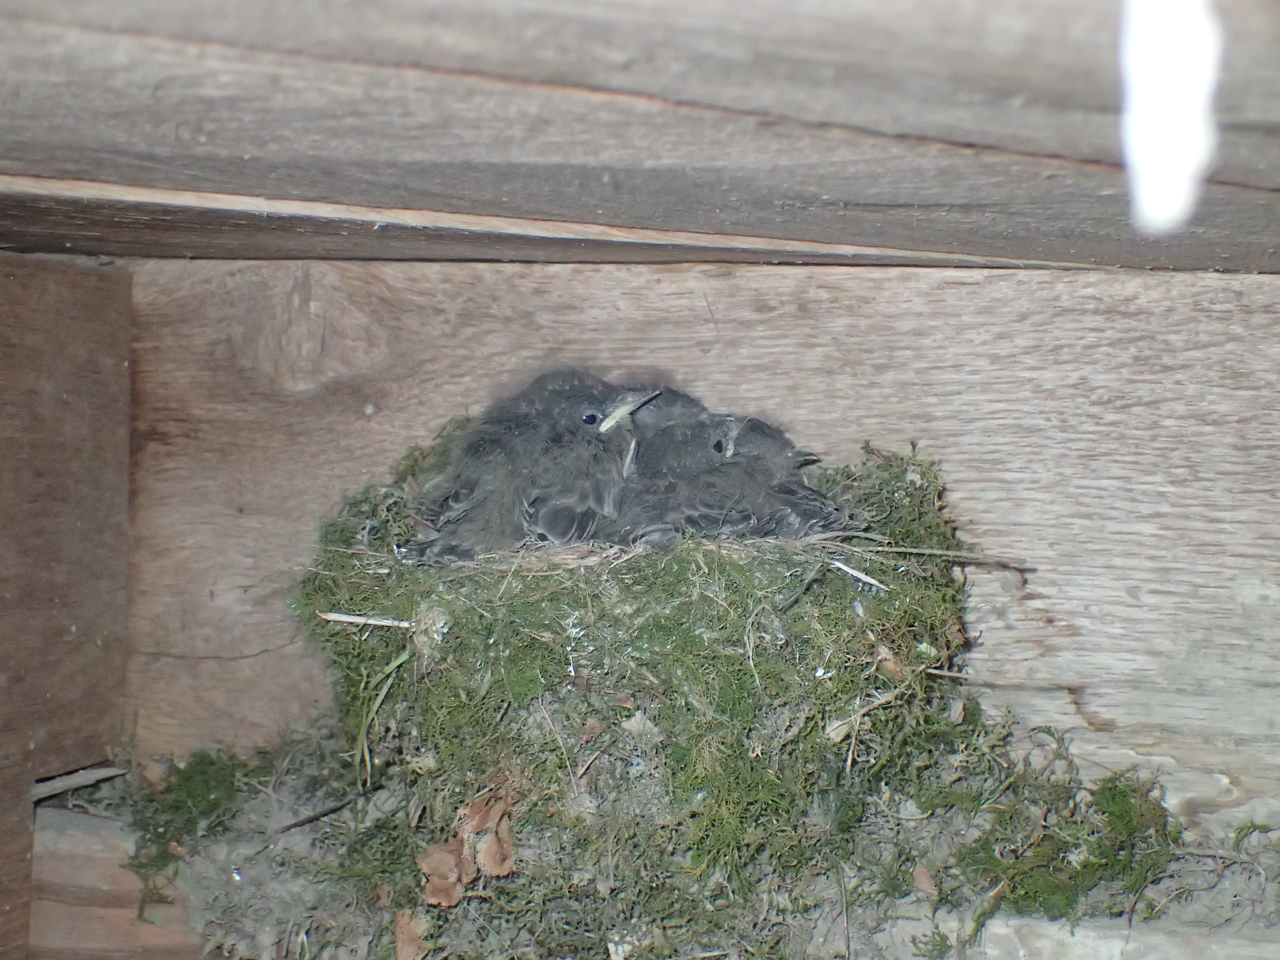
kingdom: Animalia
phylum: Chordata
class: Aves
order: Passeriformes
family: Tyrannidae
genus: Sayornis
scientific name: Sayornis phoebe
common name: Eastern phoebe
